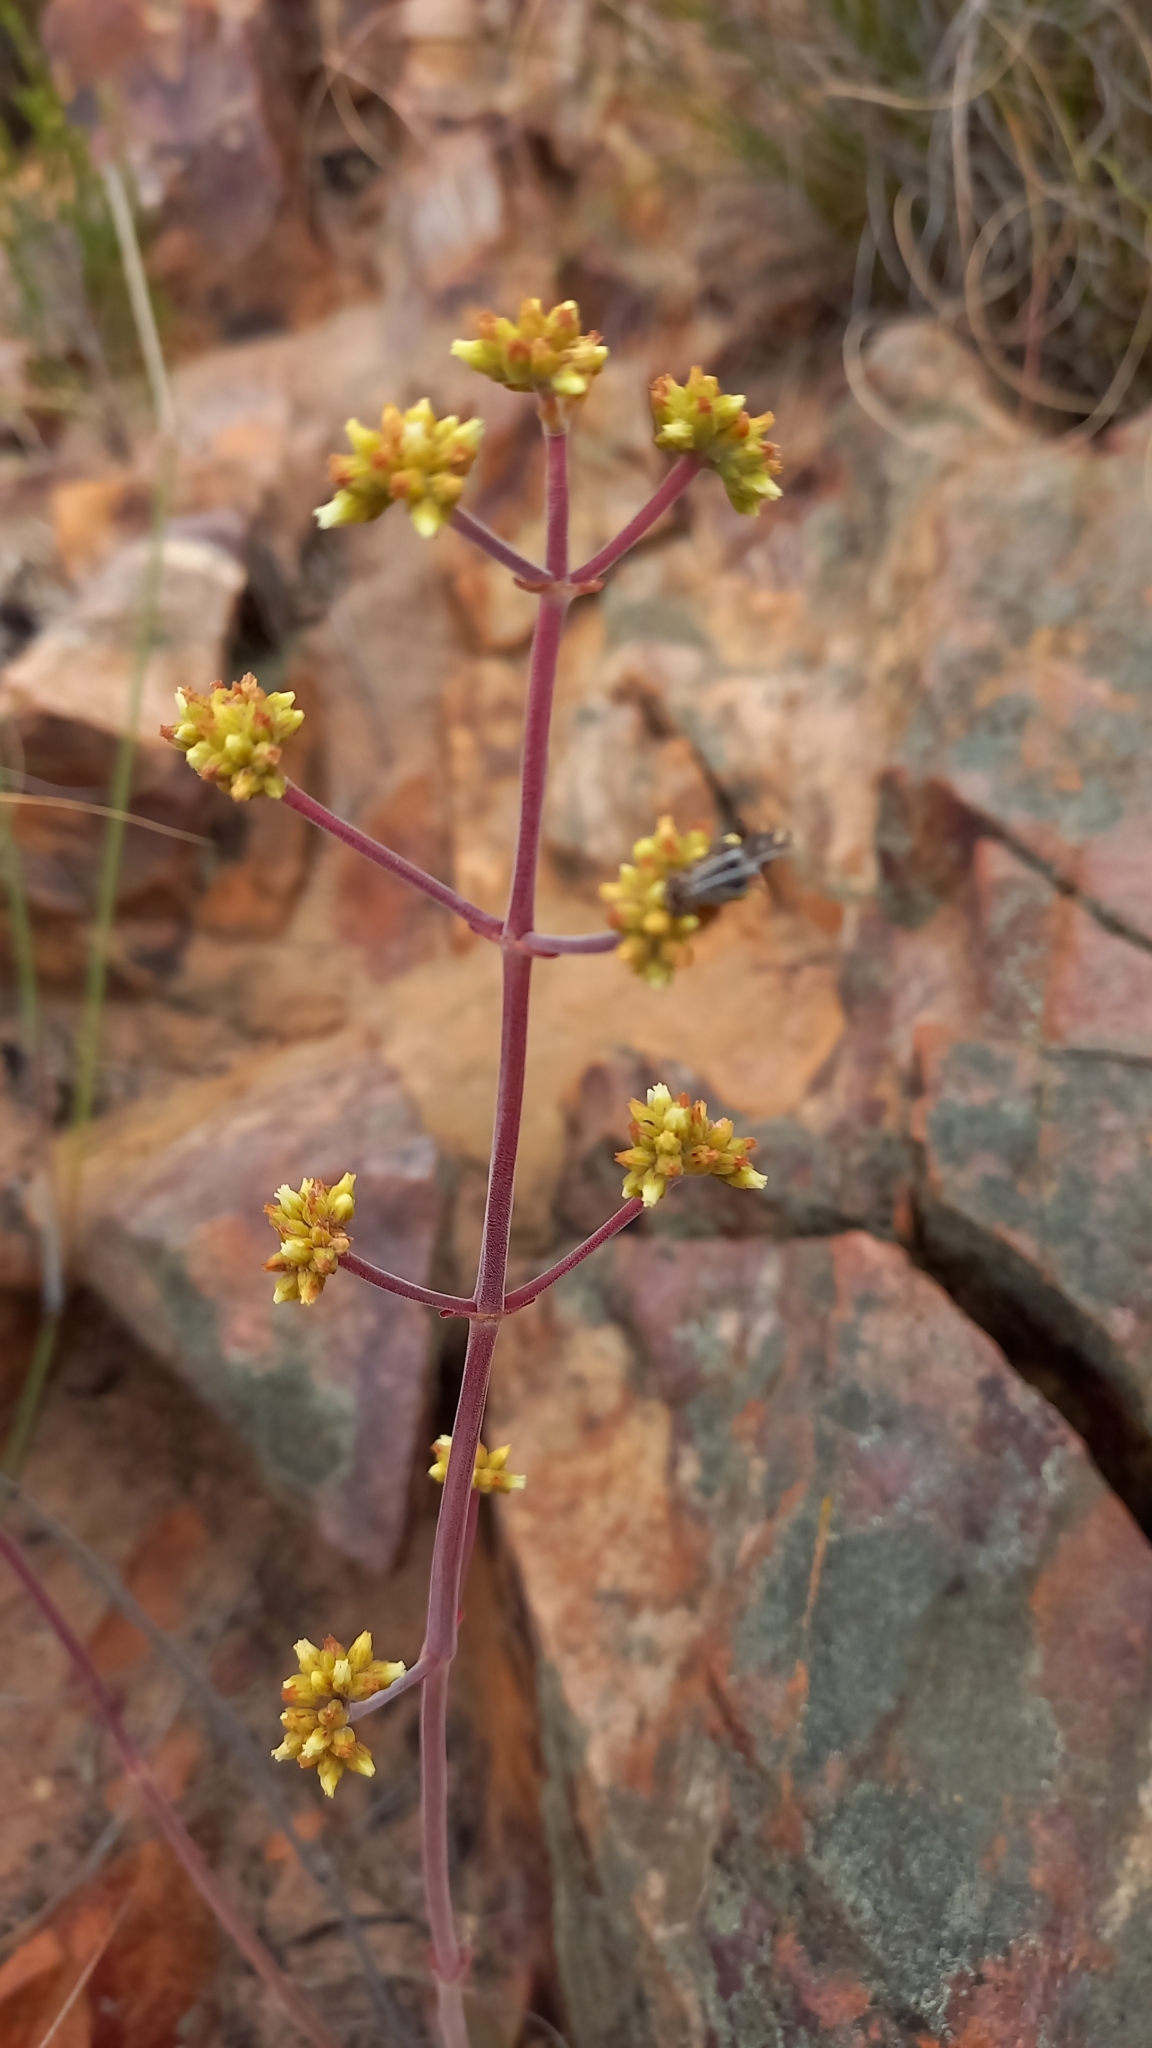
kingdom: Plantae
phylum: Tracheophyta
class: Magnoliopsida
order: Saxifragales
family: Crassulaceae
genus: Crassula
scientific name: Crassula cotyledonis
